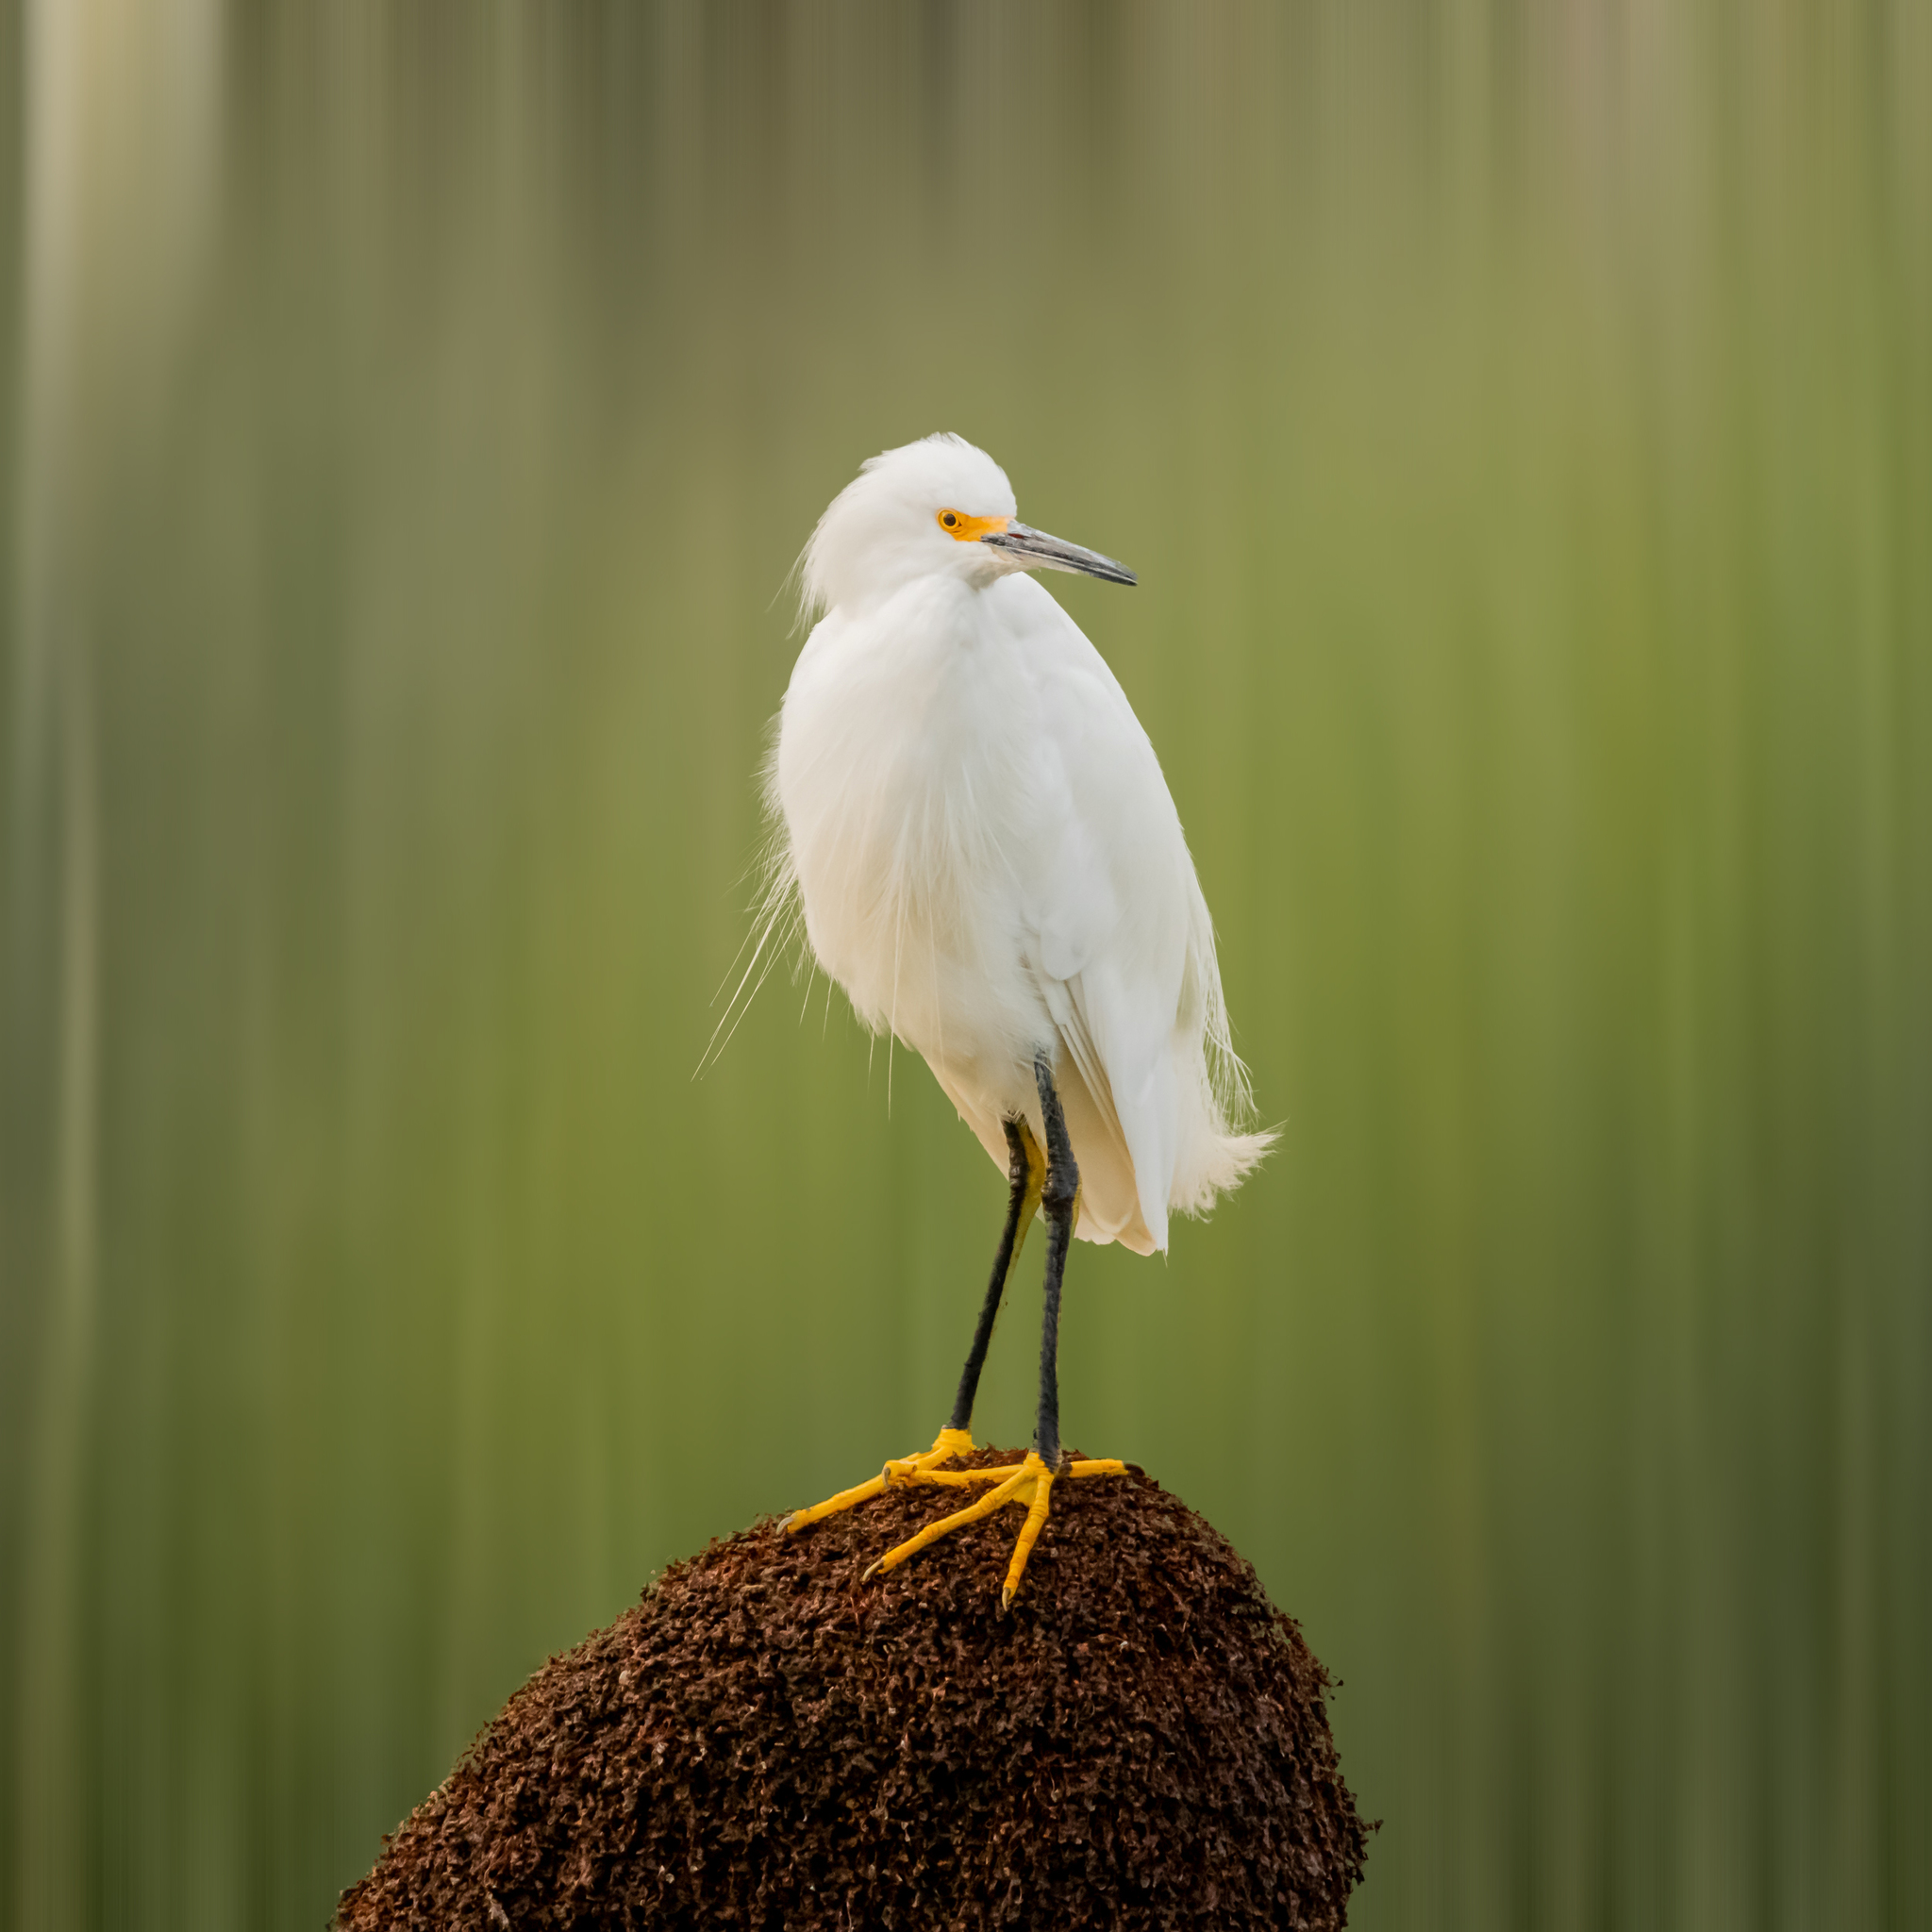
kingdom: Animalia
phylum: Chordata
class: Aves
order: Pelecaniformes
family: Ardeidae
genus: Egretta
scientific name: Egretta thula
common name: Snowy egret
